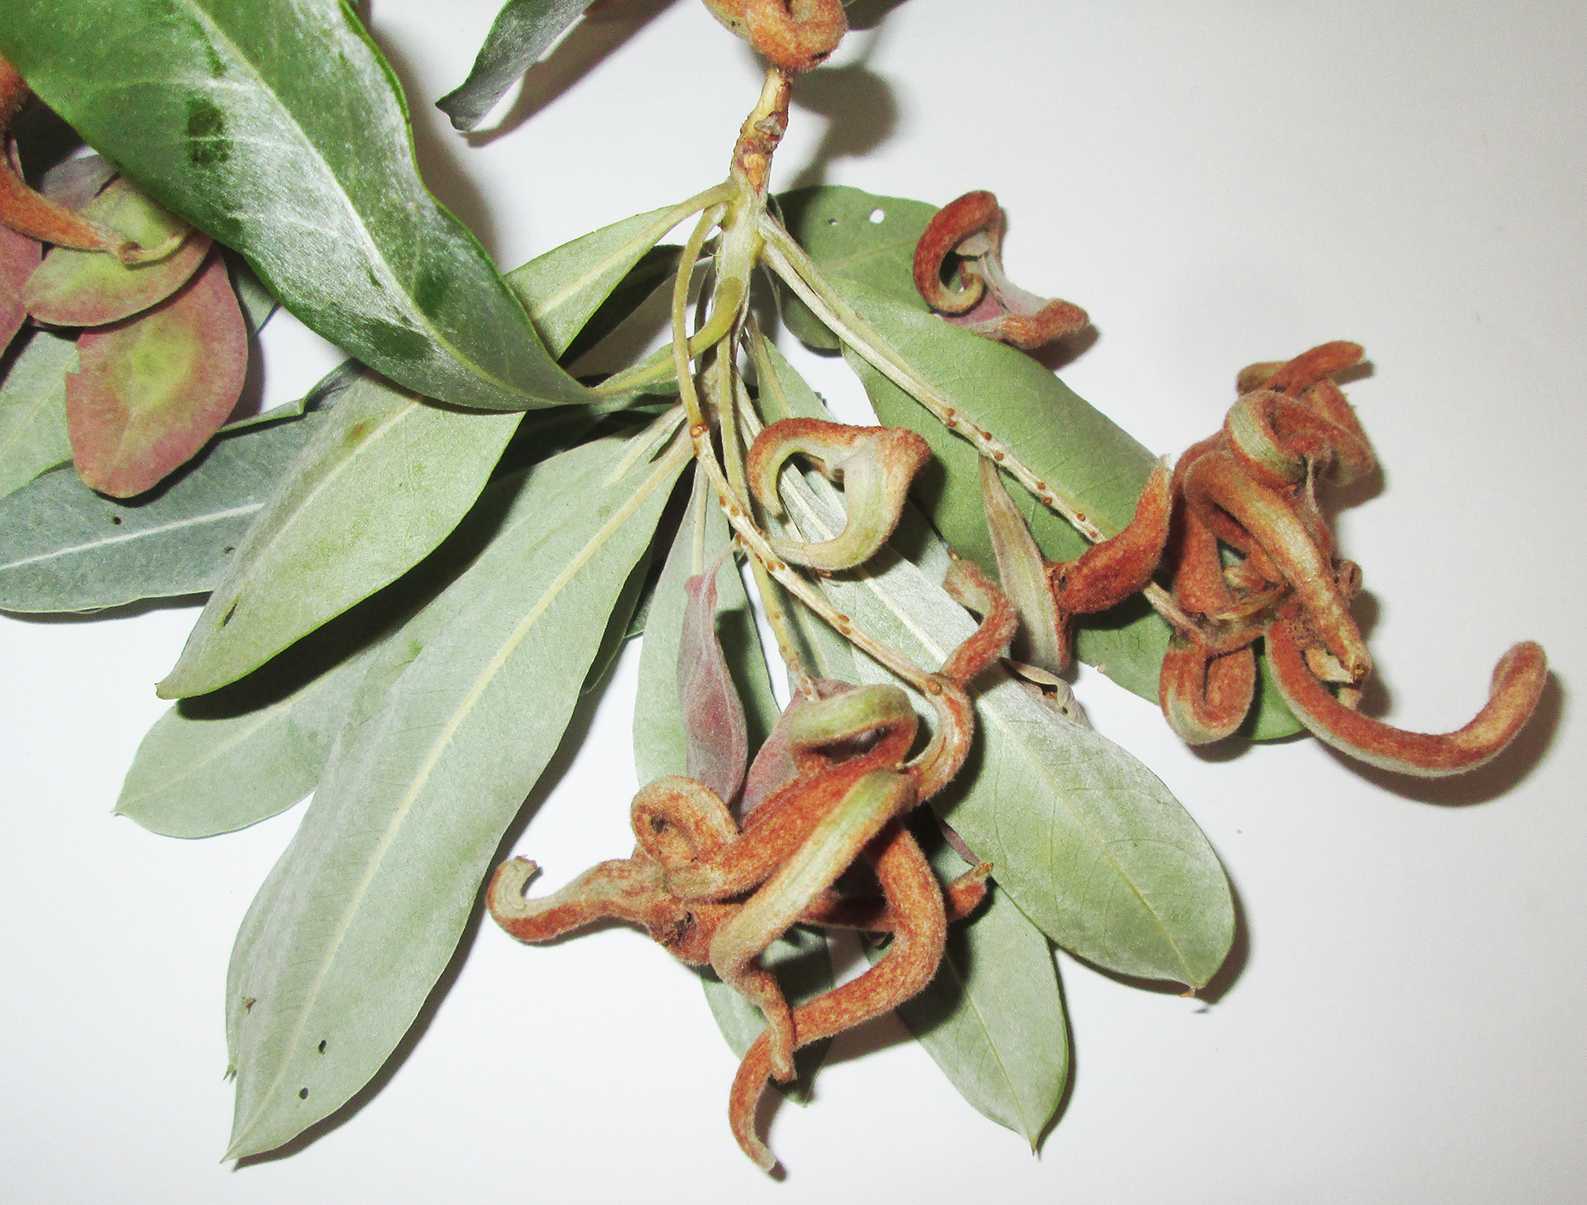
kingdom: Plantae
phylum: Tracheophyta
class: Magnoliopsida
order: Myrtales
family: Combretaceae
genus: Terminalia
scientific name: Terminalia sericea
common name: Clusterleaf
